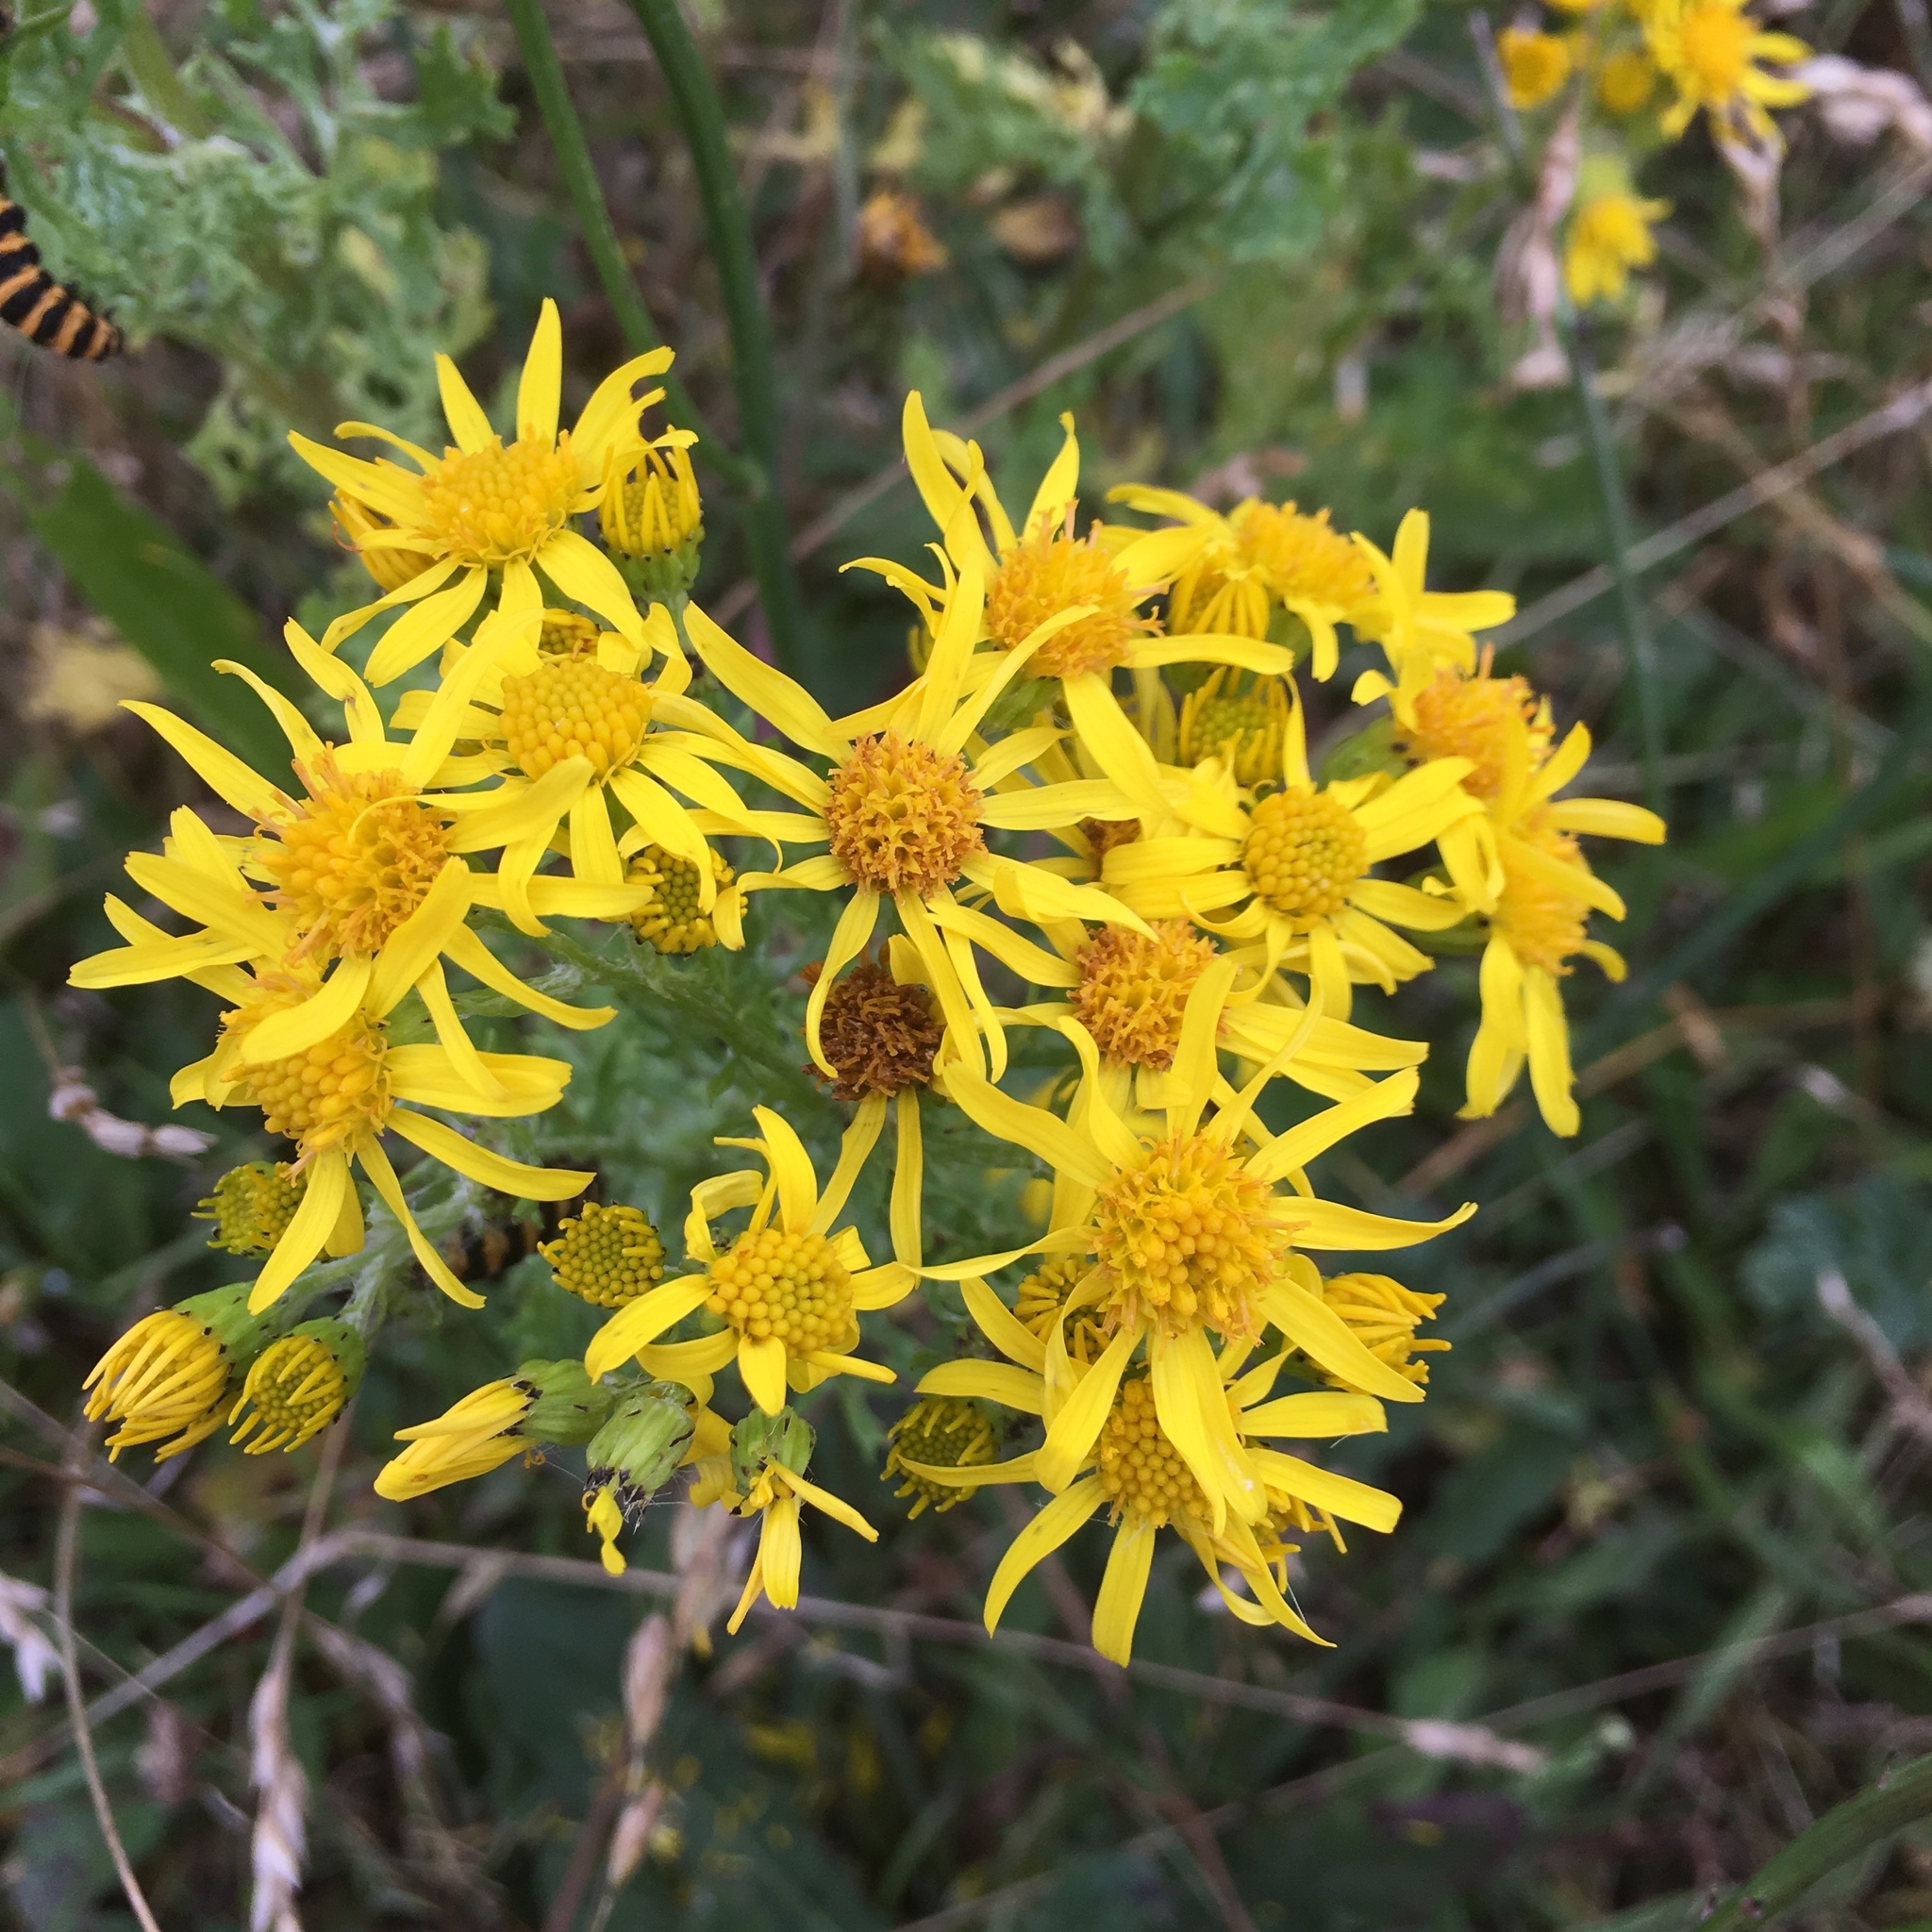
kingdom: Plantae
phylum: Tracheophyta
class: Magnoliopsida
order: Asterales
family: Asteraceae
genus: Jacobaea
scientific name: Jacobaea vulgaris
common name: Stinking willie
